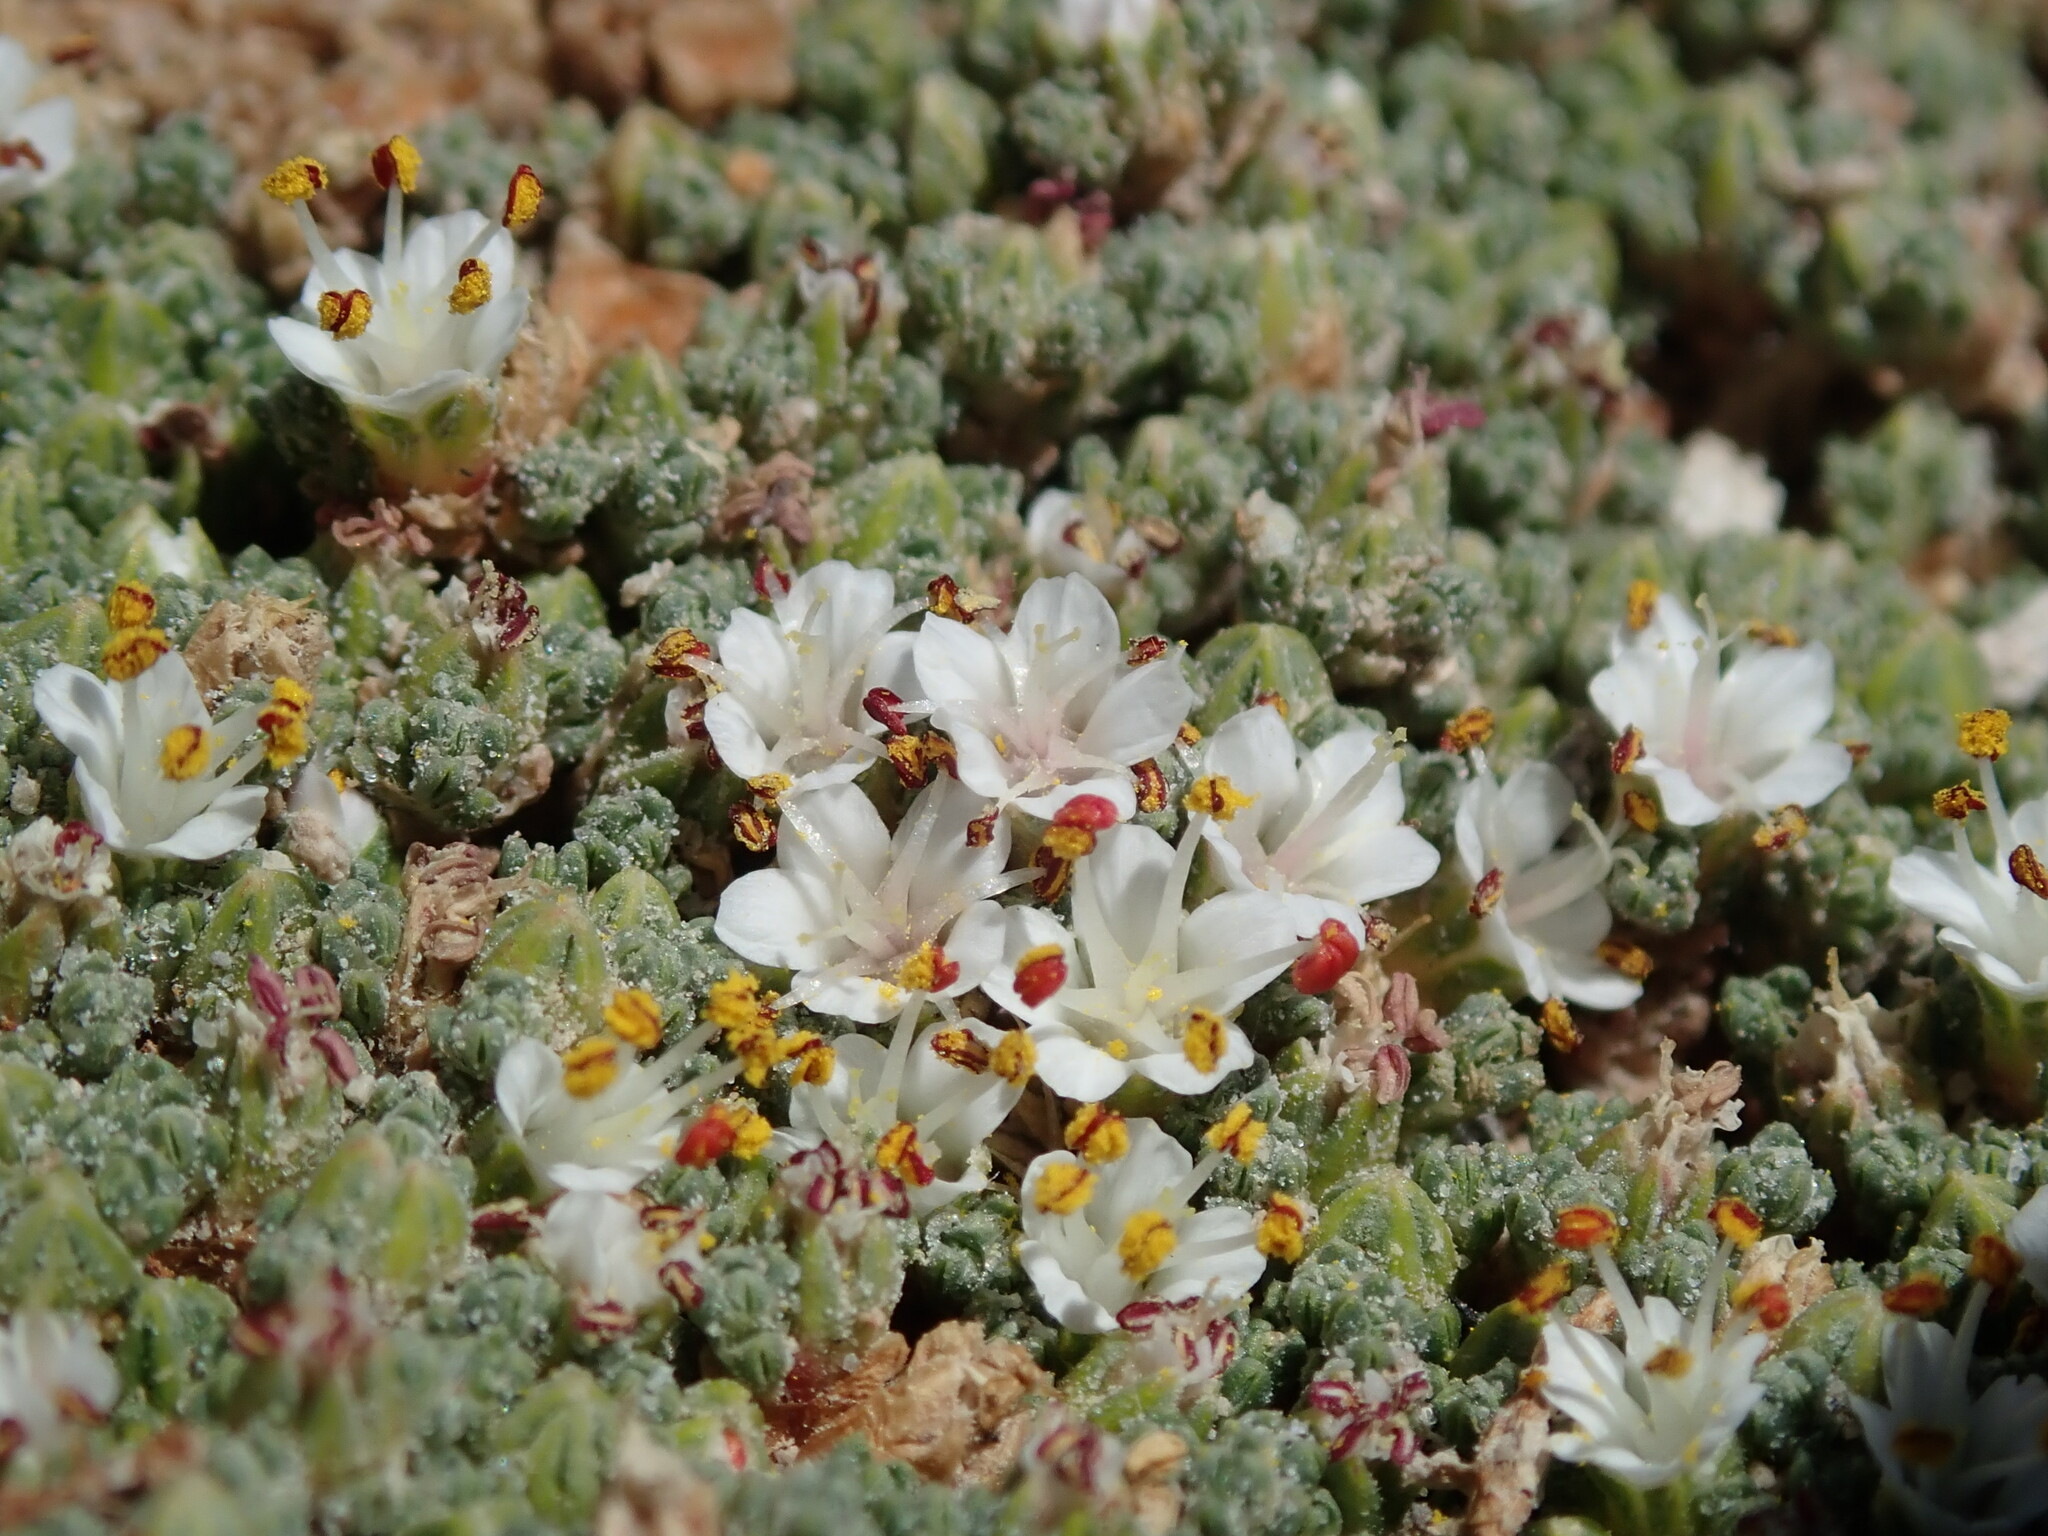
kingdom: Plantae
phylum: Tracheophyta
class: Magnoliopsida
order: Caryophyllales
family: Frankeniaceae
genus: Frankenia
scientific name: Frankenia triandra
